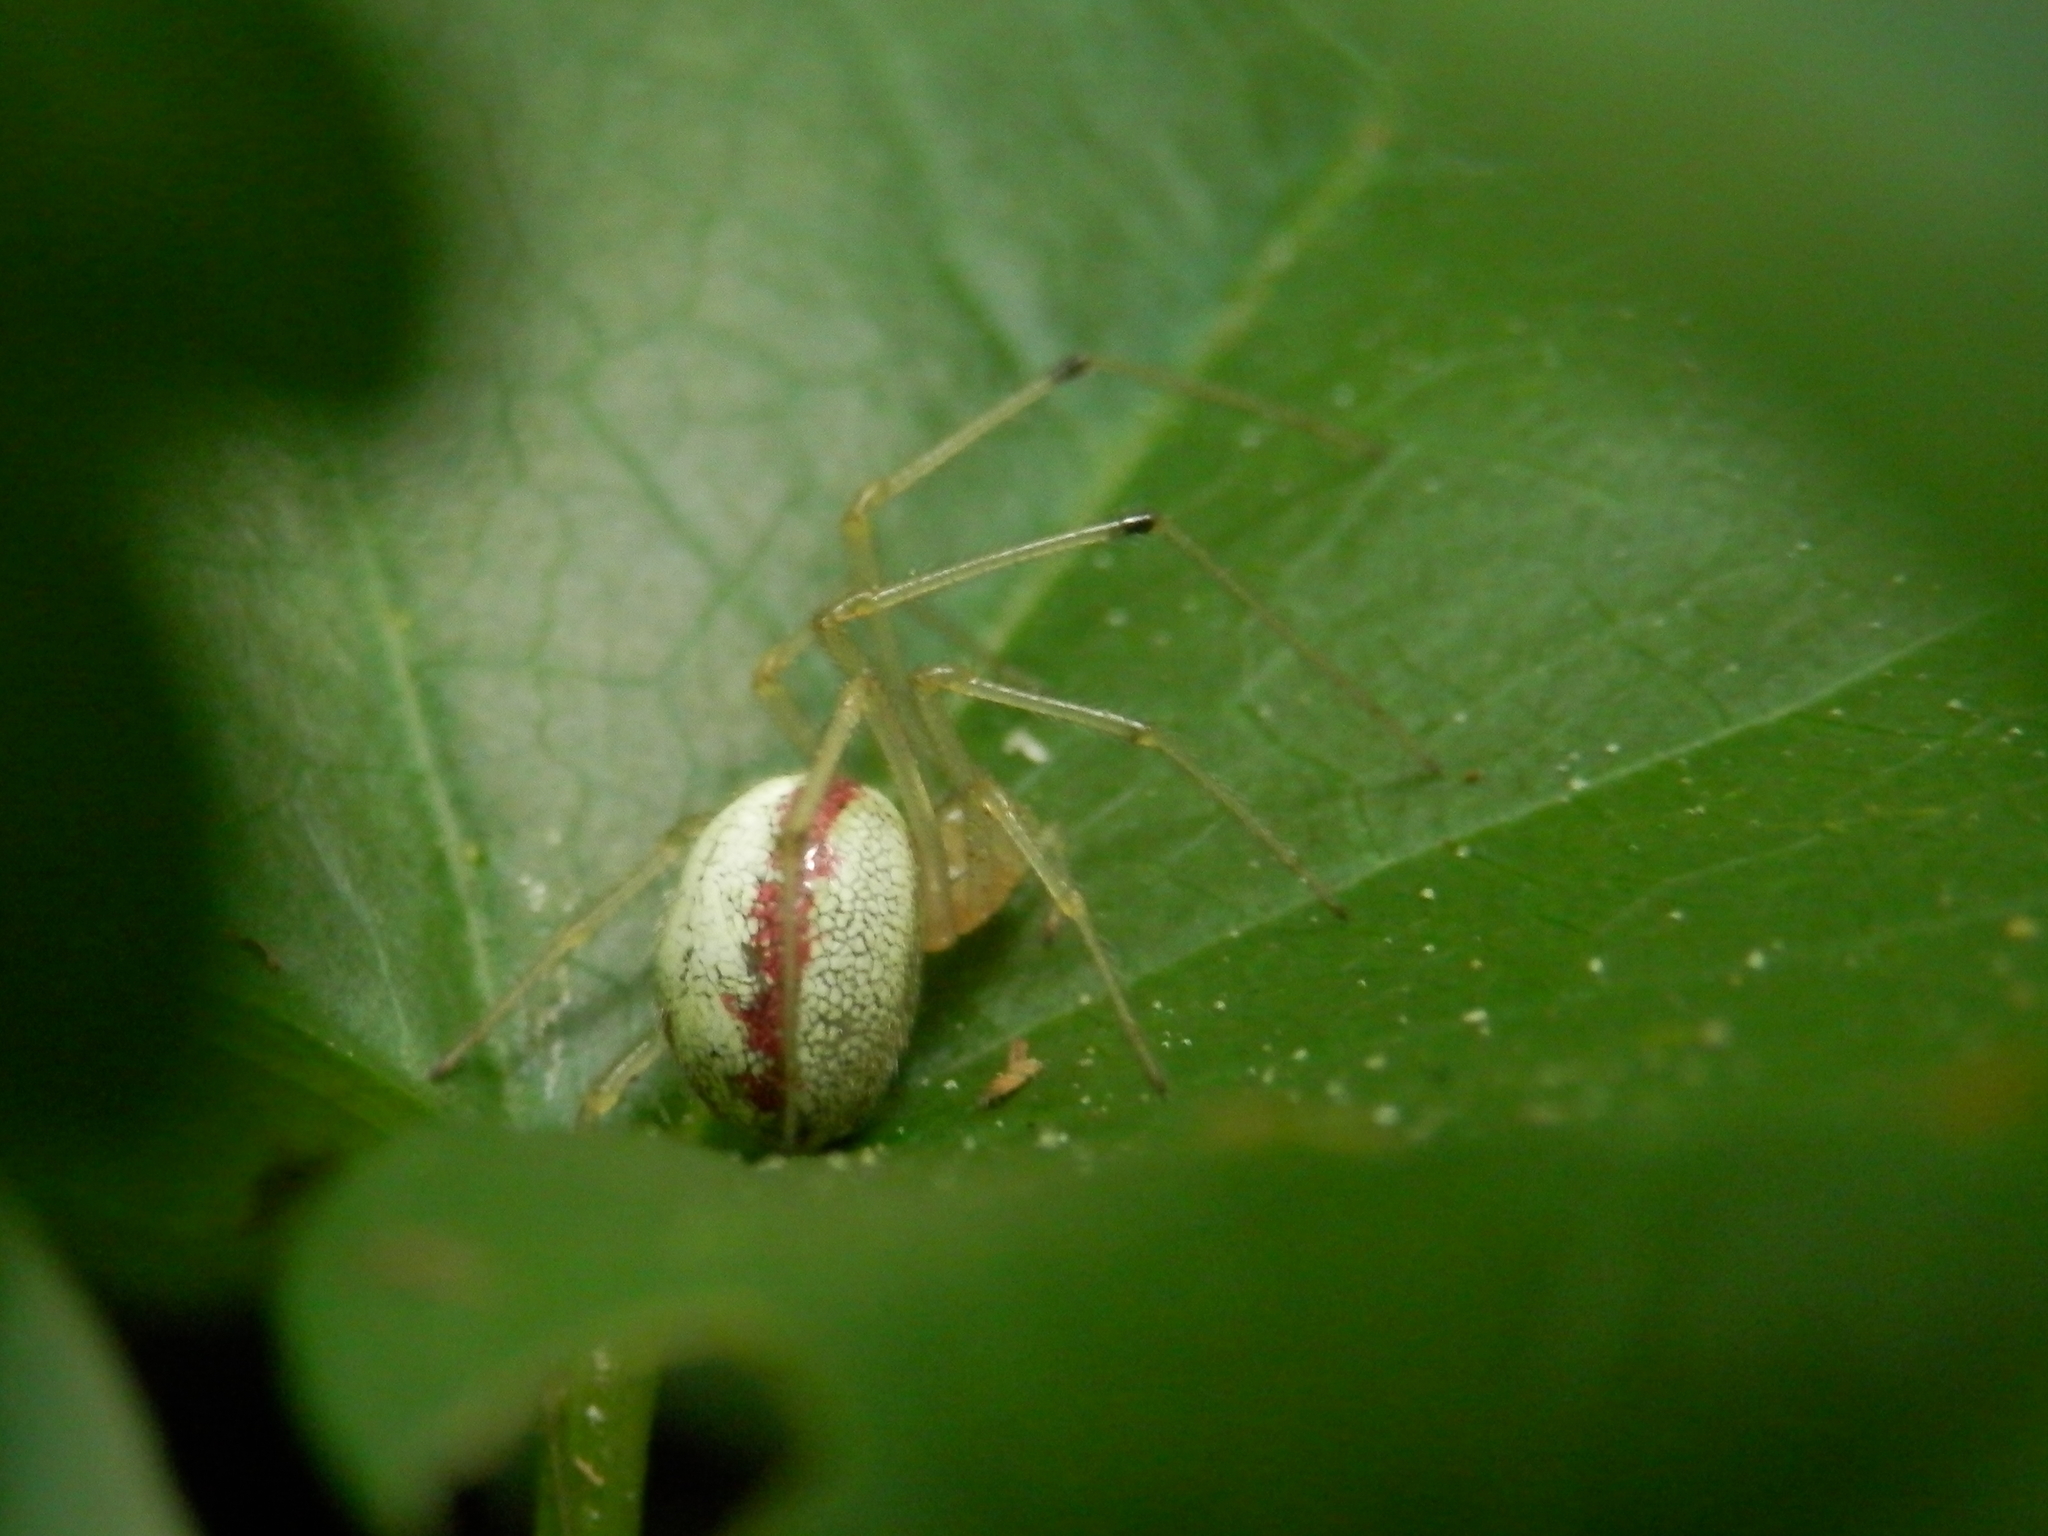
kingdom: Animalia
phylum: Arthropoda
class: Arachnida
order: Araneae
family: Theridiidae
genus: Enoplognatha
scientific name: Enoplognatha ovata
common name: Common candy-striped spider
